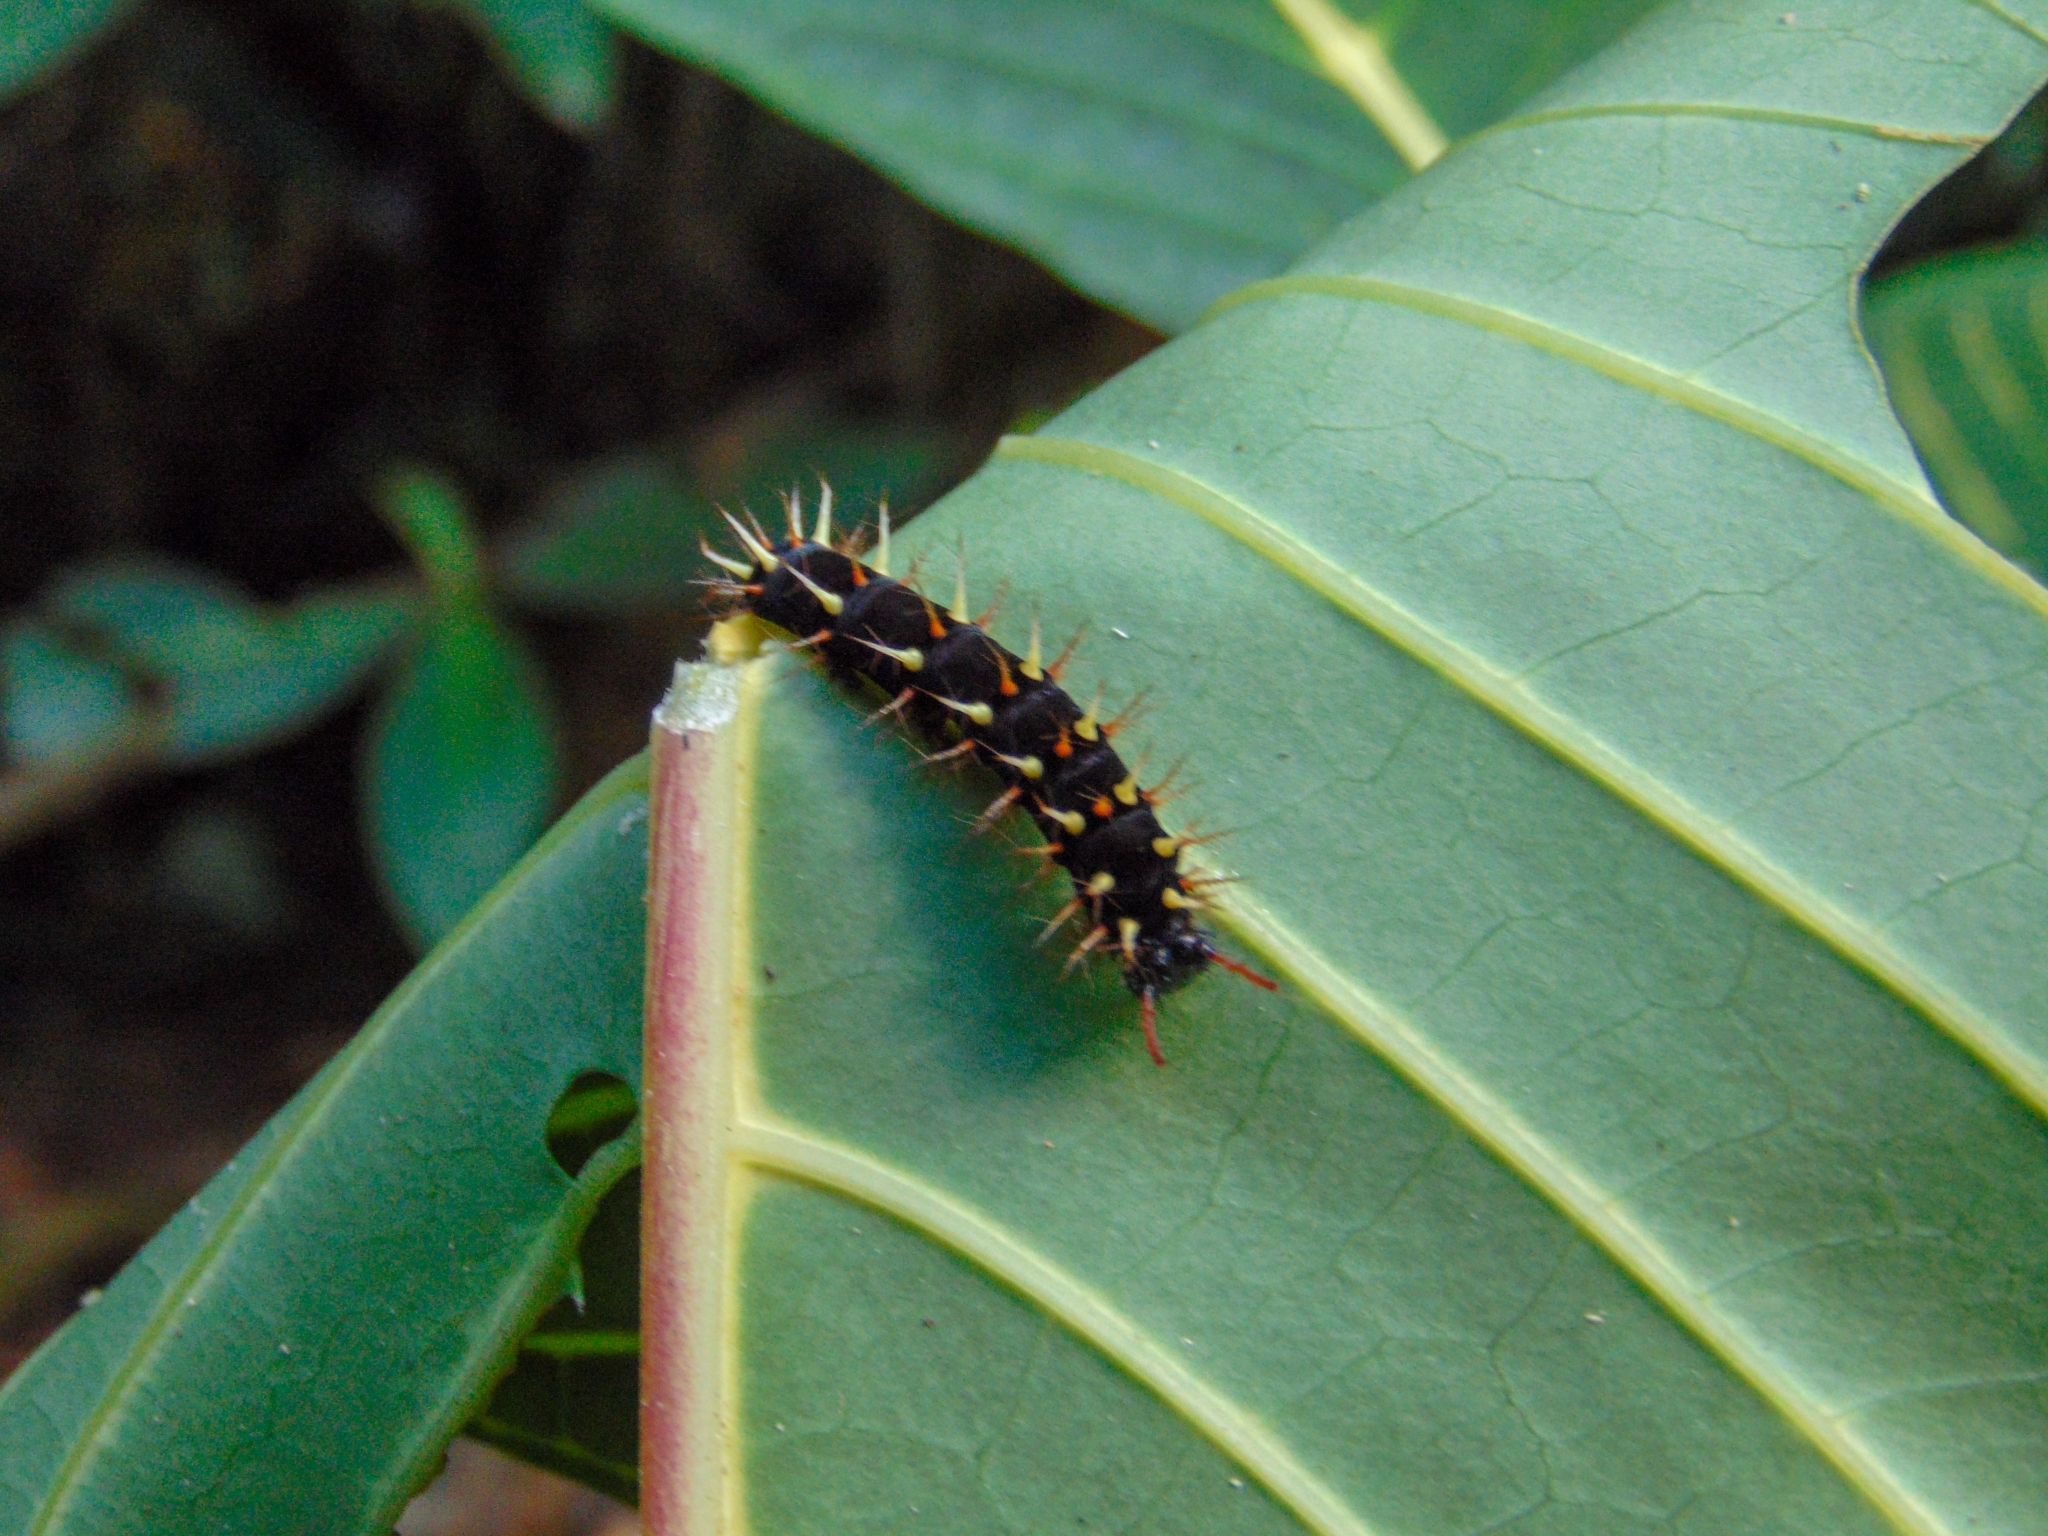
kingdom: Animalia
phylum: Arthropoda
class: Insecta
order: Lepidoptera
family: Nymphalidae
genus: Siproeta
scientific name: Siproeta epaphus
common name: Rusty-tipped page
